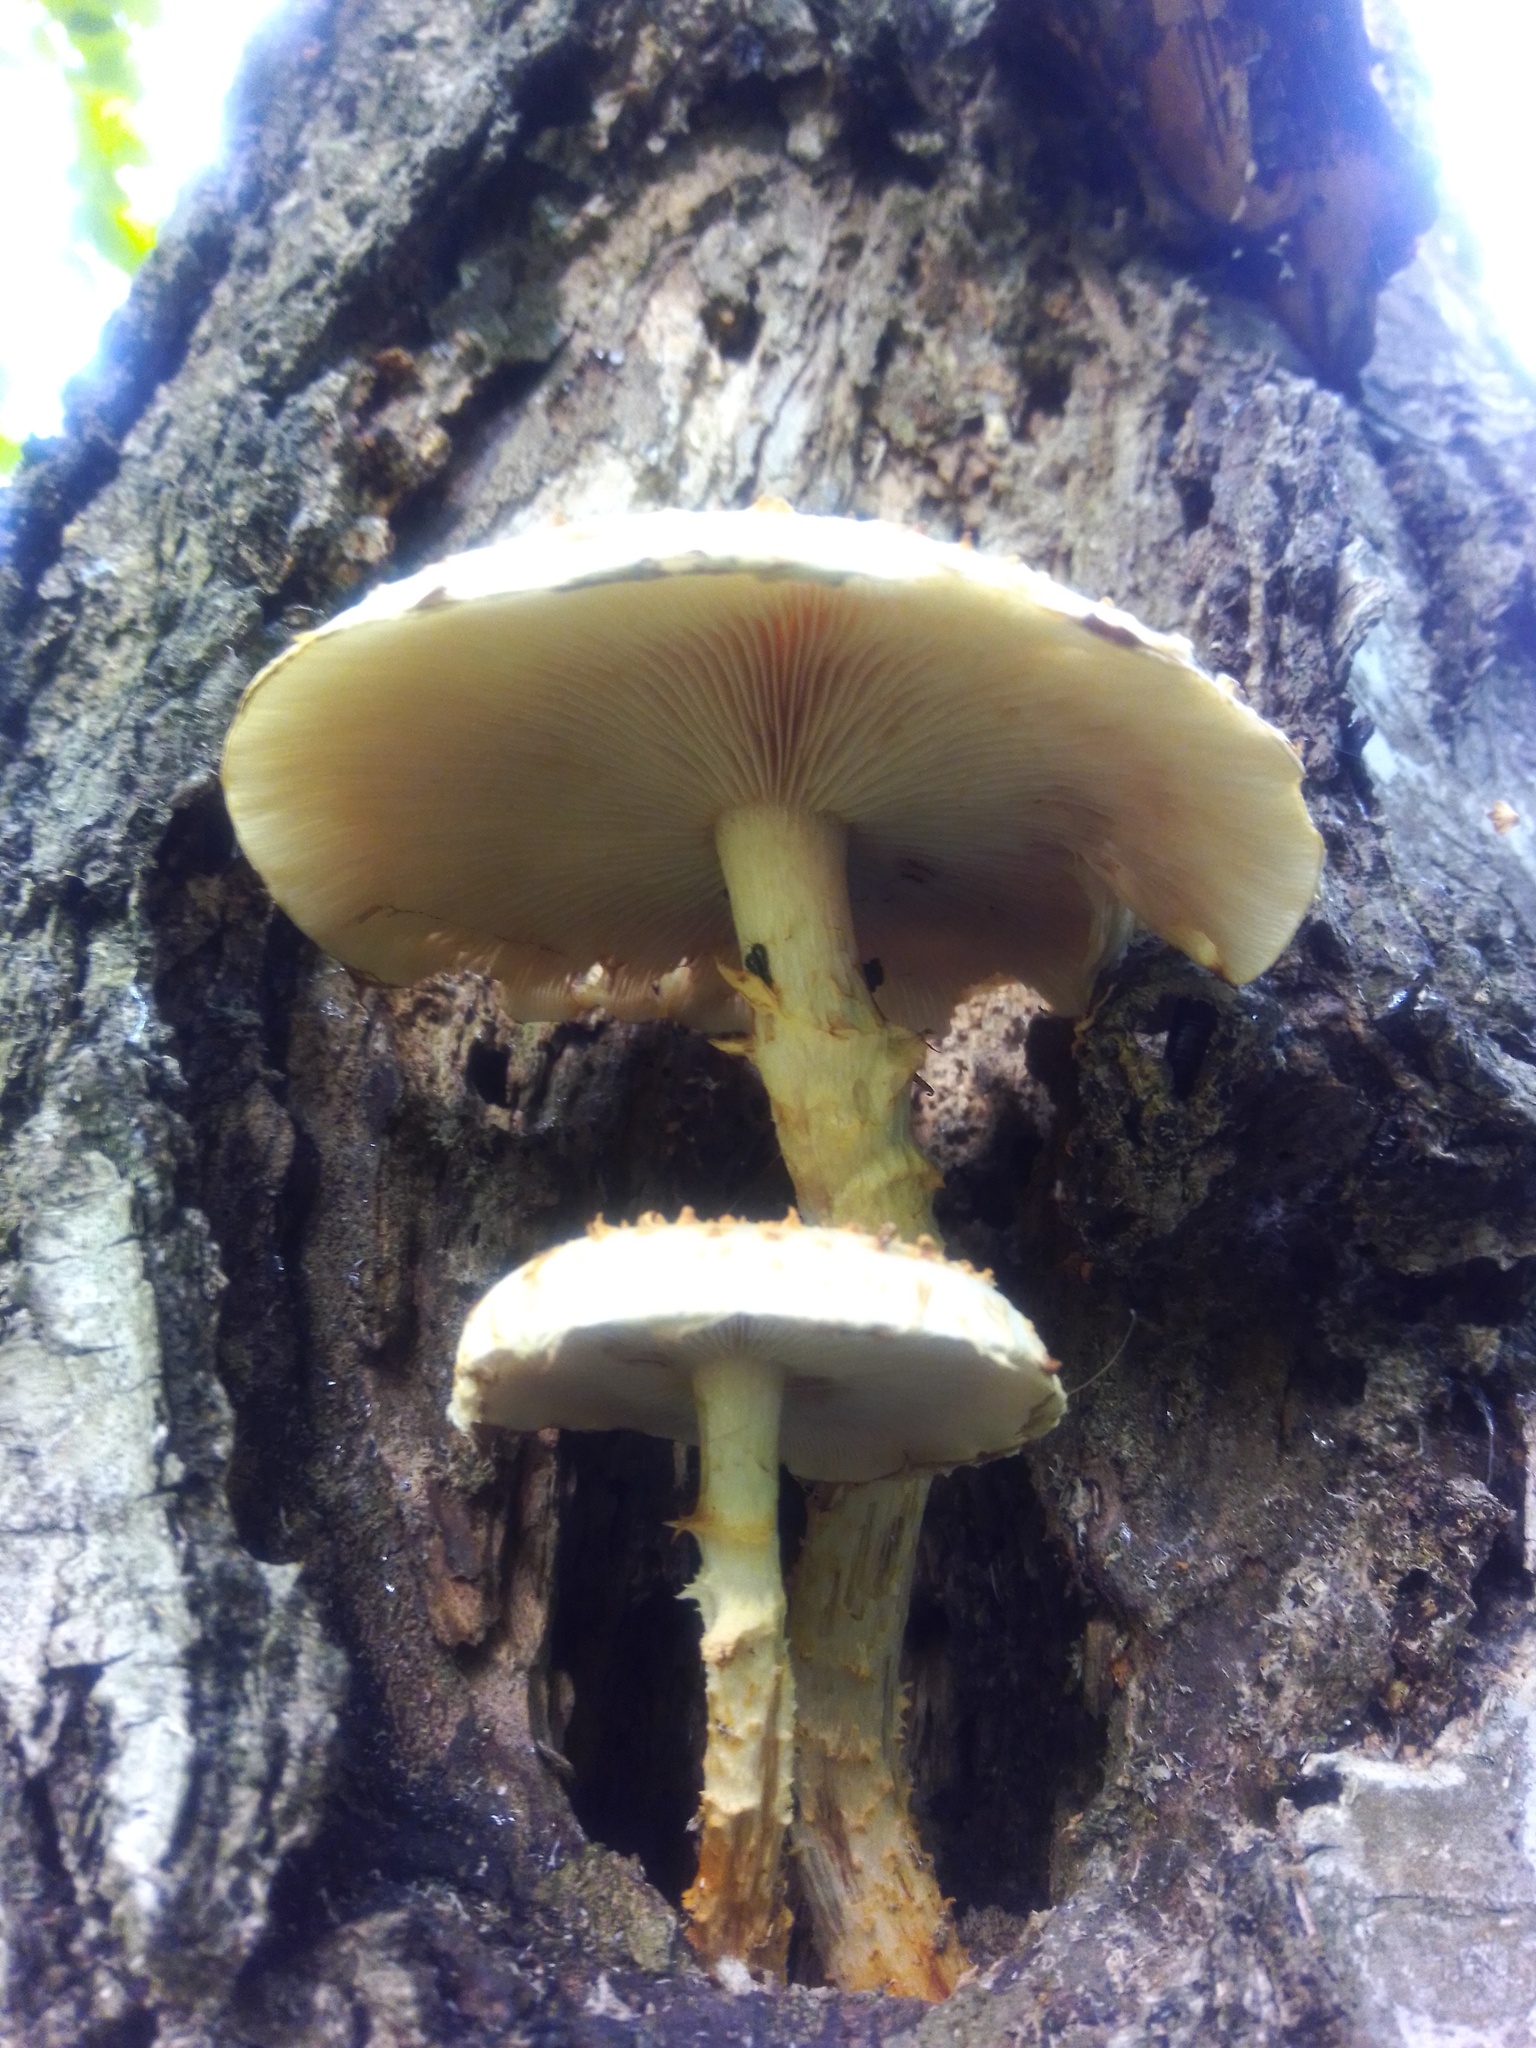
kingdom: Fungi
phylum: Basidiomycota
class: Agaricomycetes
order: Agaricales
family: Strophariaceae
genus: Pholiota
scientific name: Pholiota squarrosoides
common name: Sharp-scaly pholiota
